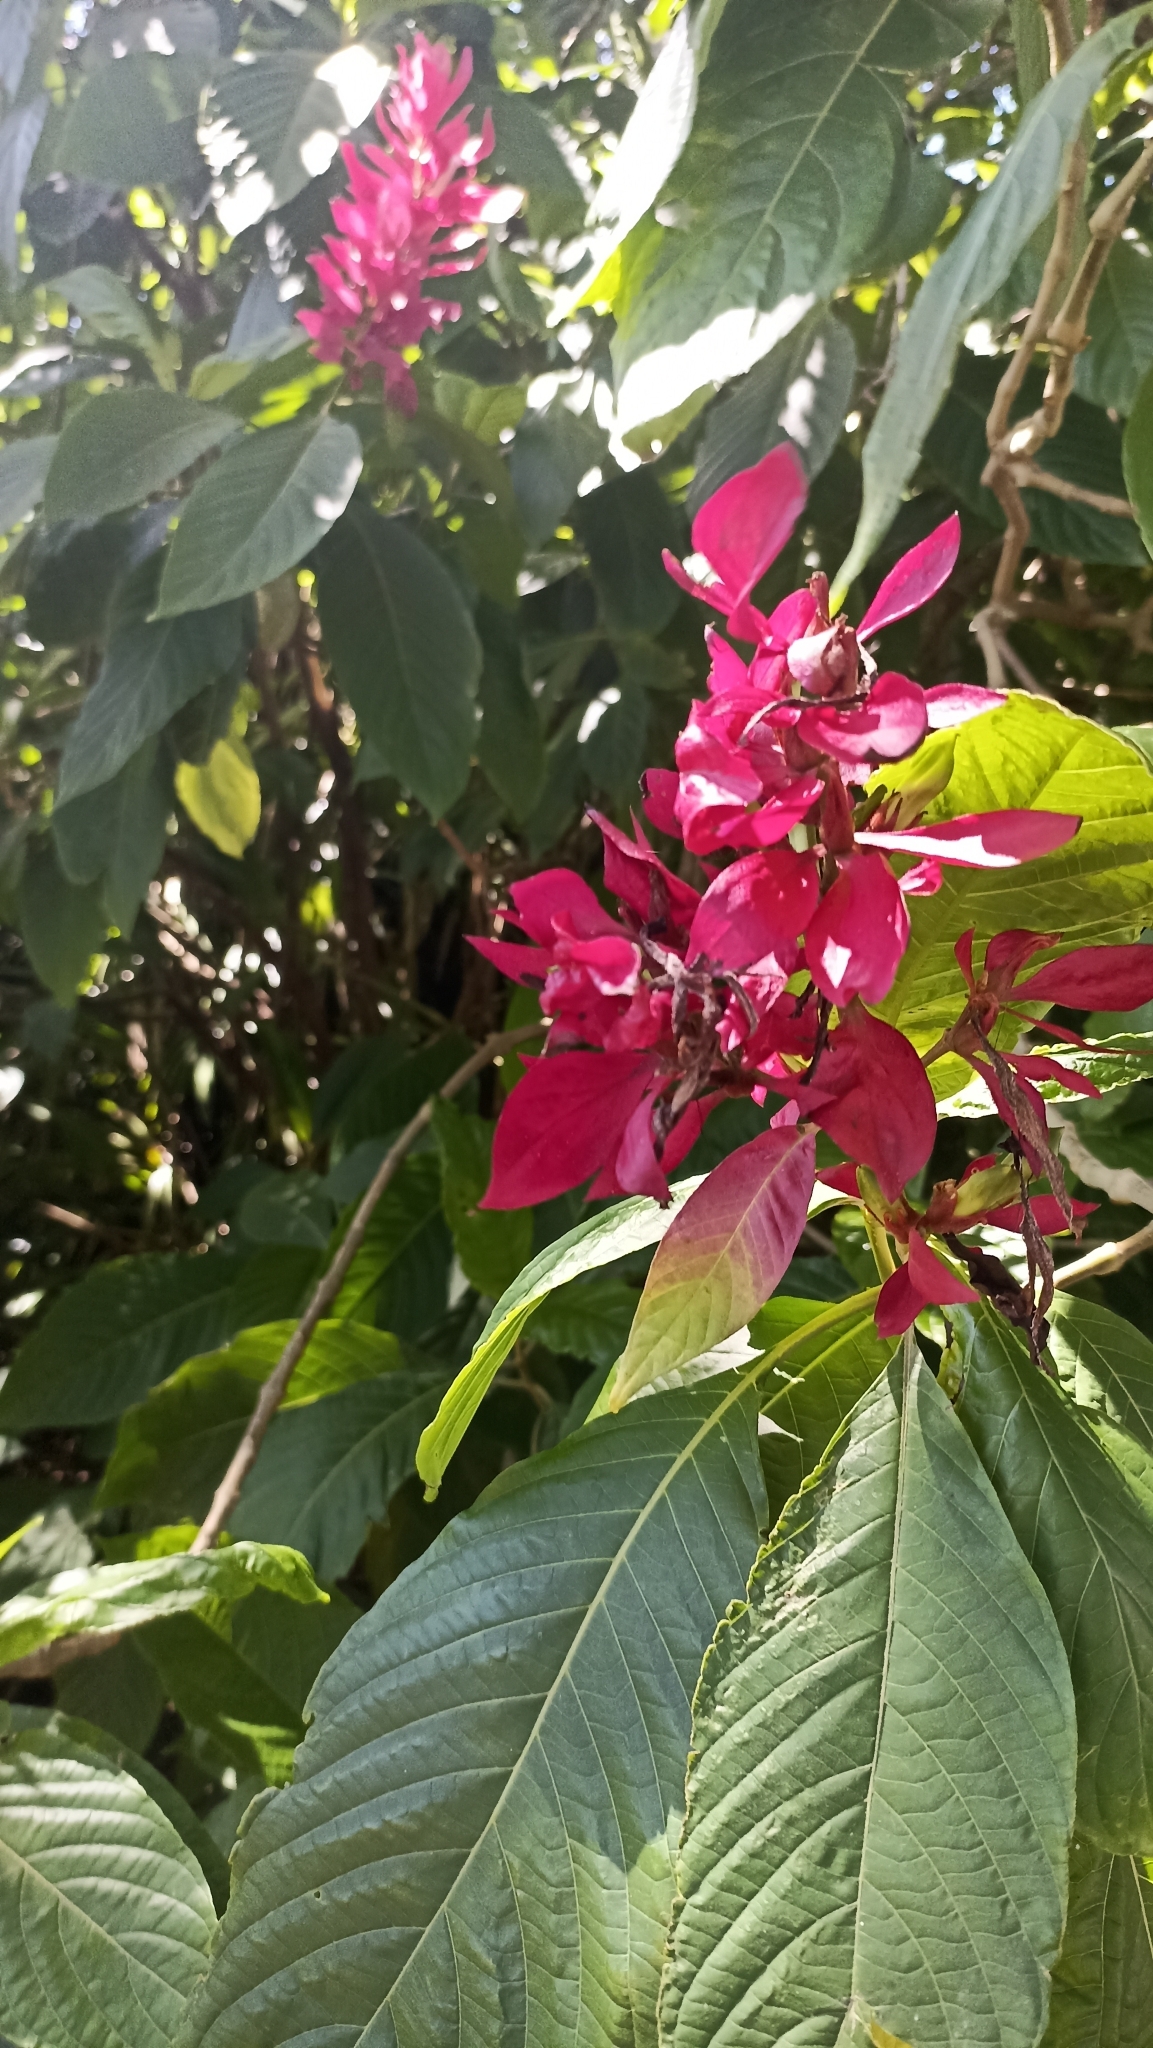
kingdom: Plantae
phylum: Tracheophyta
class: Magnoliopsida
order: Lamiales
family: Acanthaceae
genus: Megaskepasma
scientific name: Megaskepasma erythrochlamys
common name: Brazilian red-cloak
